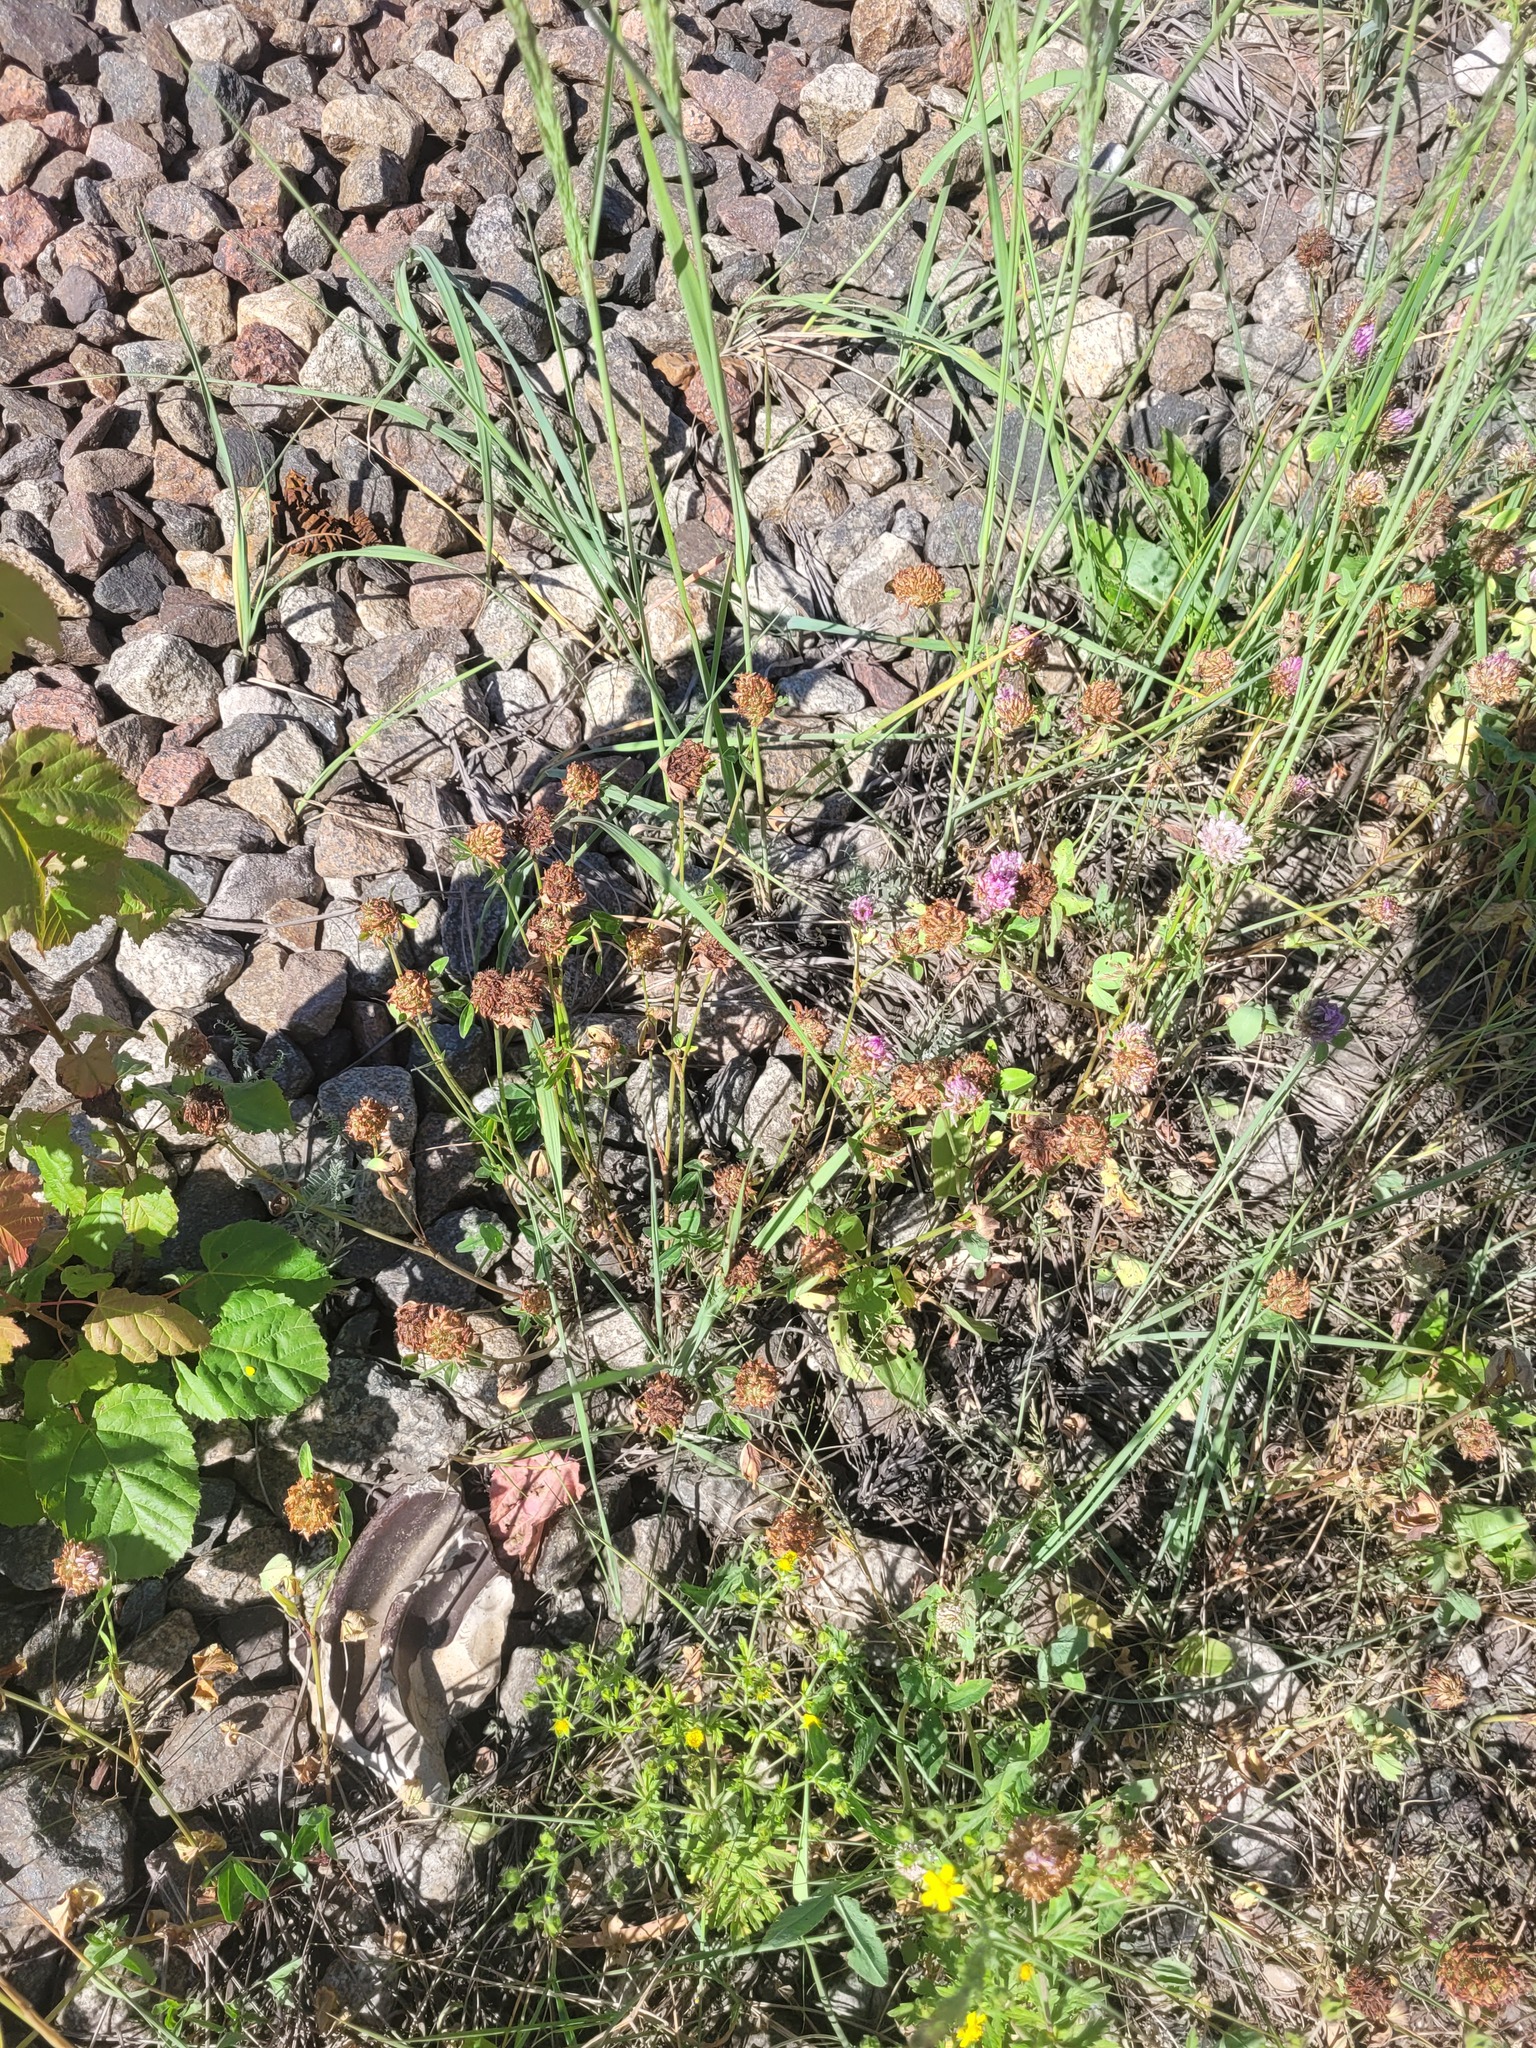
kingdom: Plantae
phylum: Tracheophyta
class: Magnoliopsida
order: Fabales
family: Fabaceae
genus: Trifolium
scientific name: Trifolium pratense
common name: Red clover
